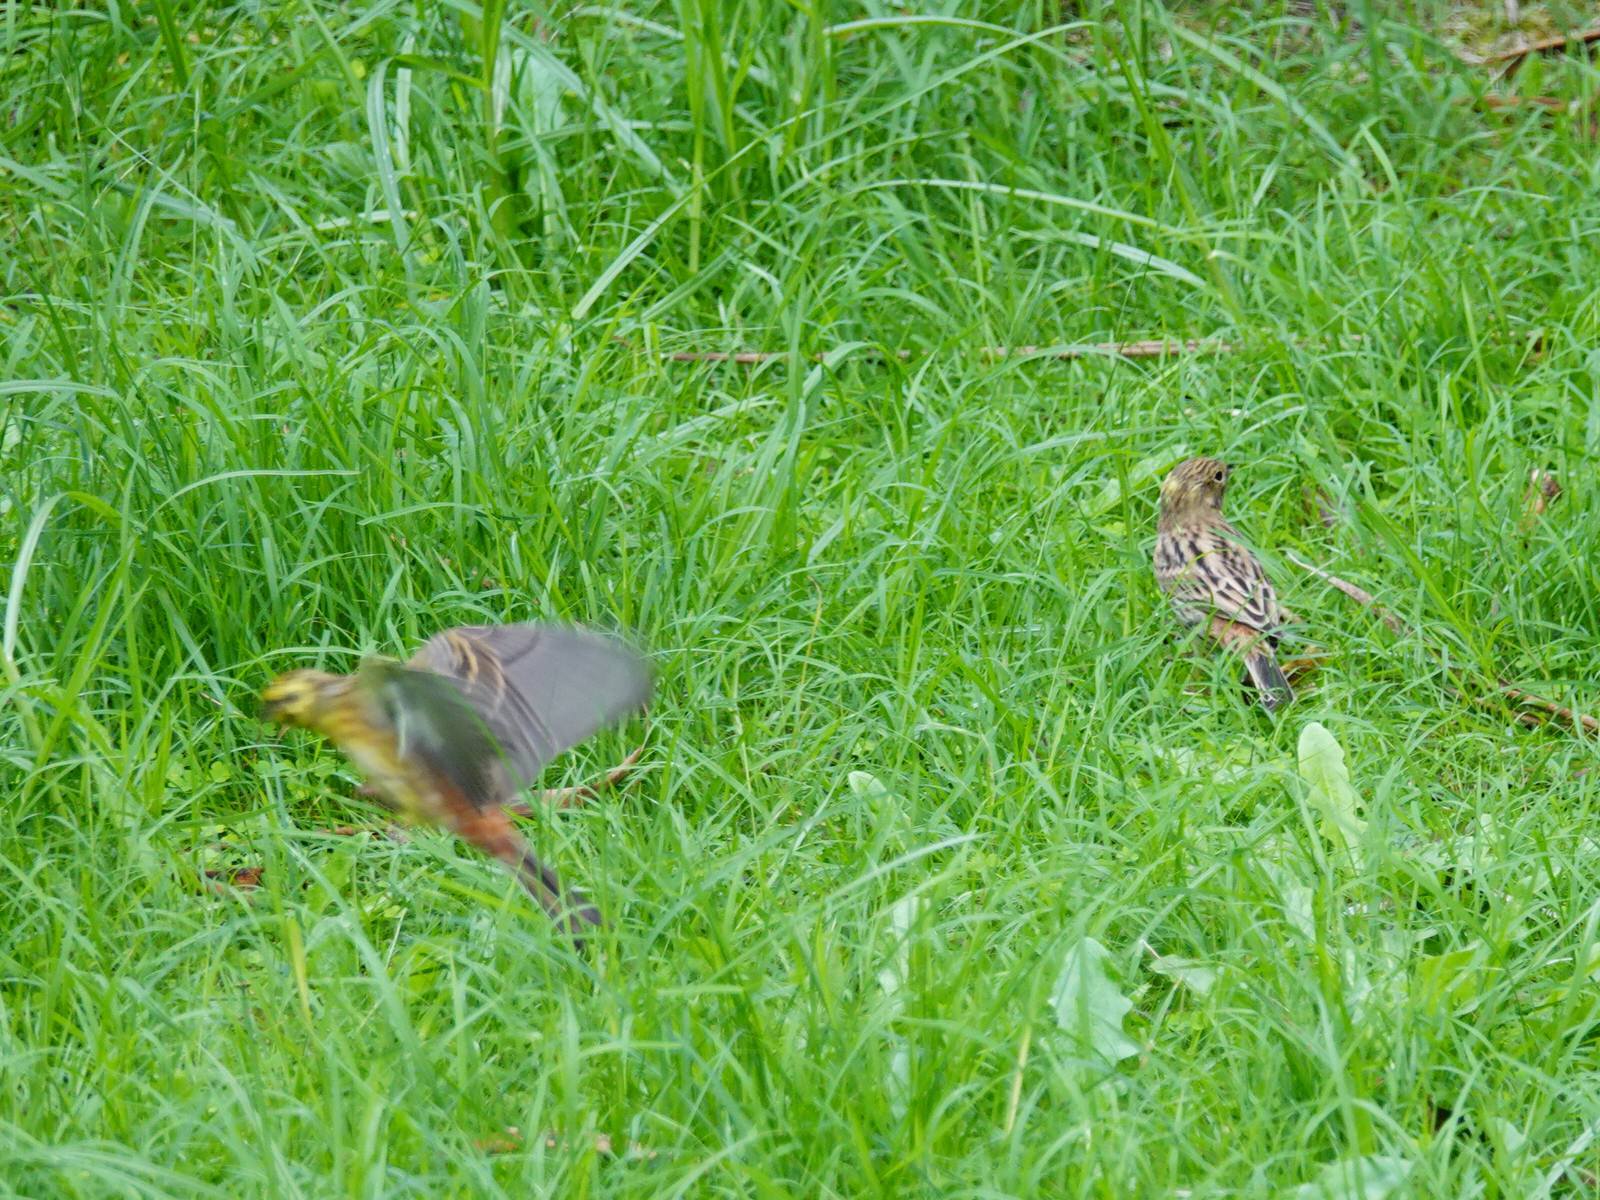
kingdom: Animalia
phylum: Chordata
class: Aves
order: Passeriformes
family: Emberizidae
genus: Emberiza
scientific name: Emberiza citrinella
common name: Yellowhammer
